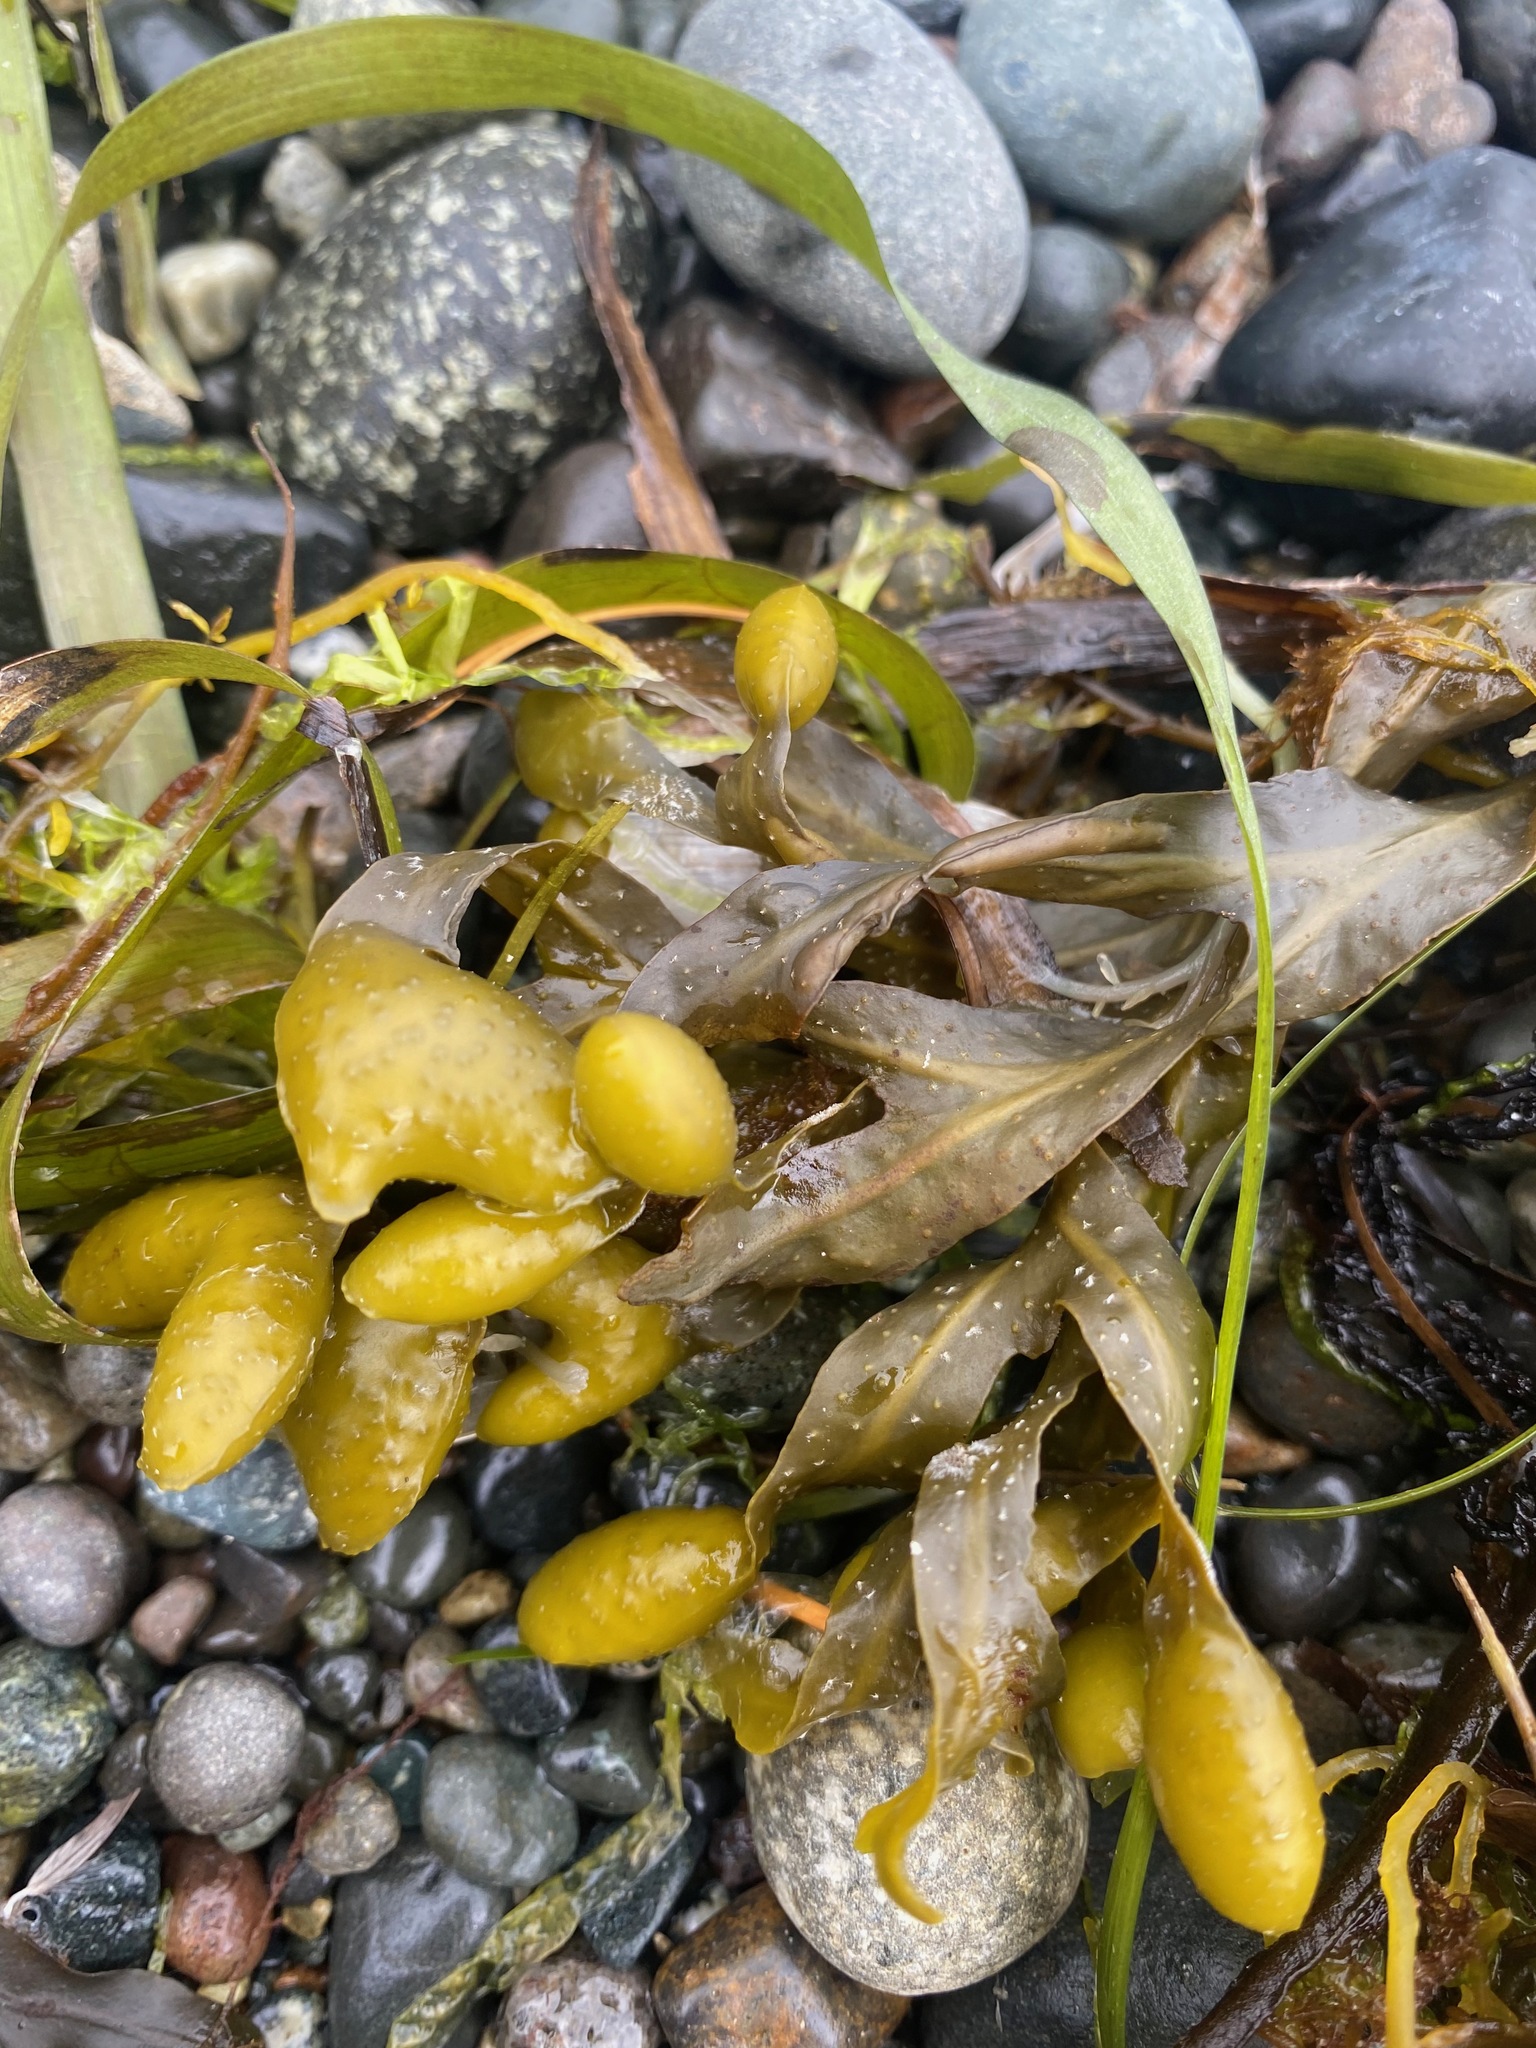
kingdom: Chromista
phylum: Ochrophyta
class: Phaeophyceae
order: Fucales
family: Fucaceae
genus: Fucus
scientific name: Fucus distichus
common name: Rockweed
